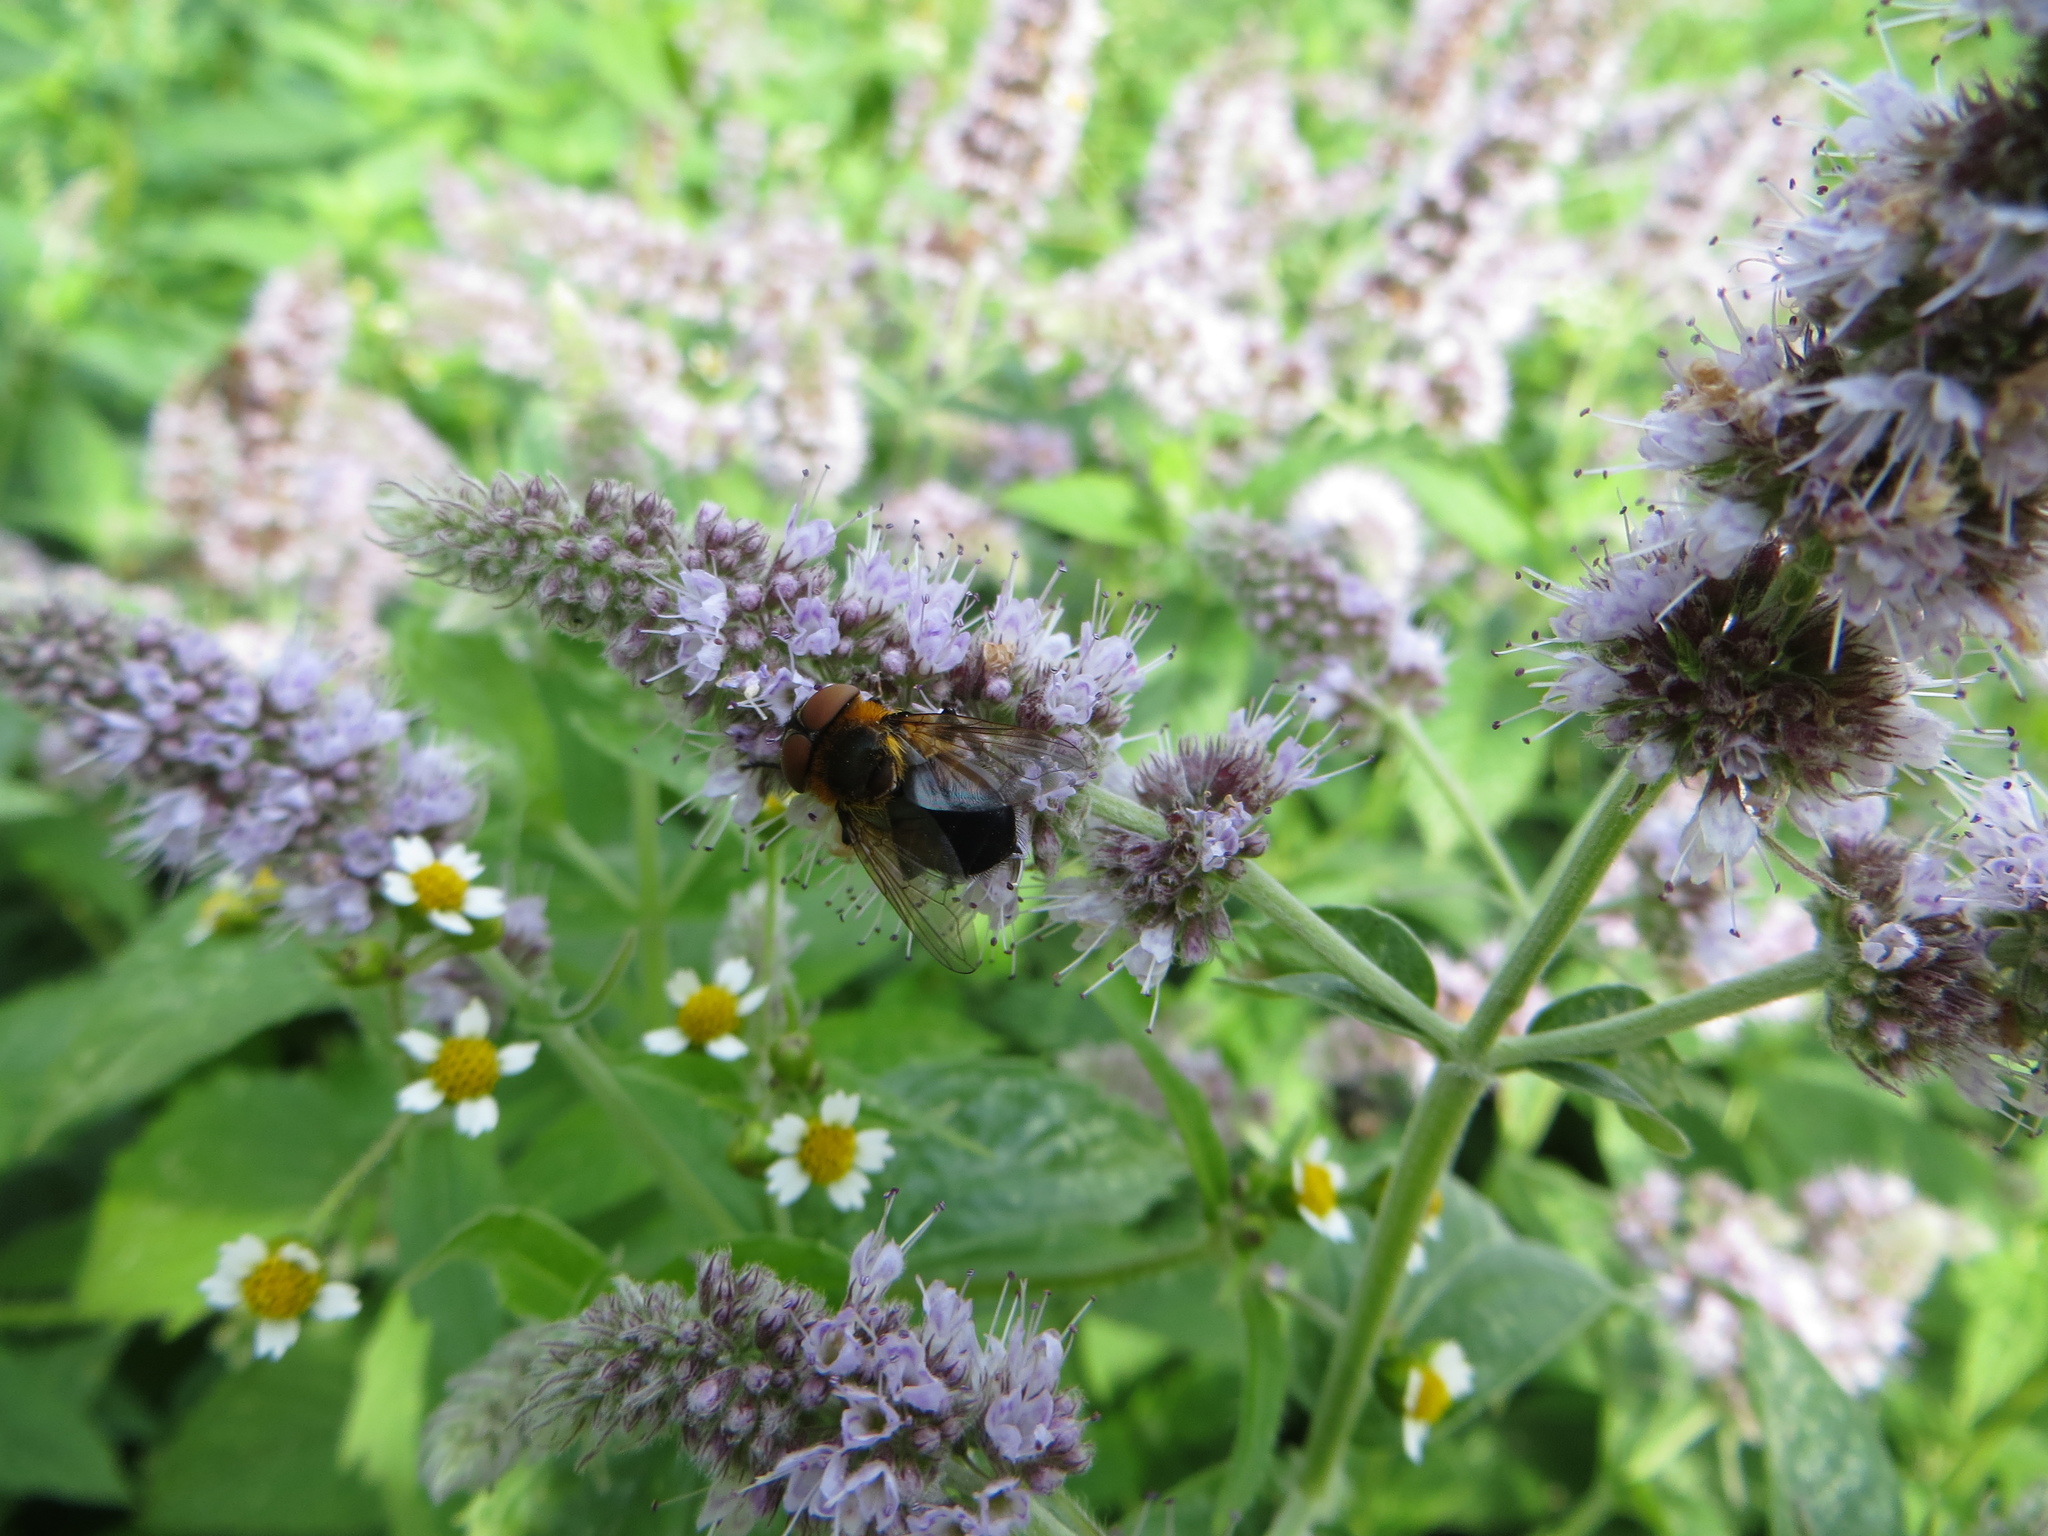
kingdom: Animalia
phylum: Arthropoda
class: Insecta
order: Diptera
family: Tachinidae
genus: Phasia
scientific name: Phasia hemiptera
